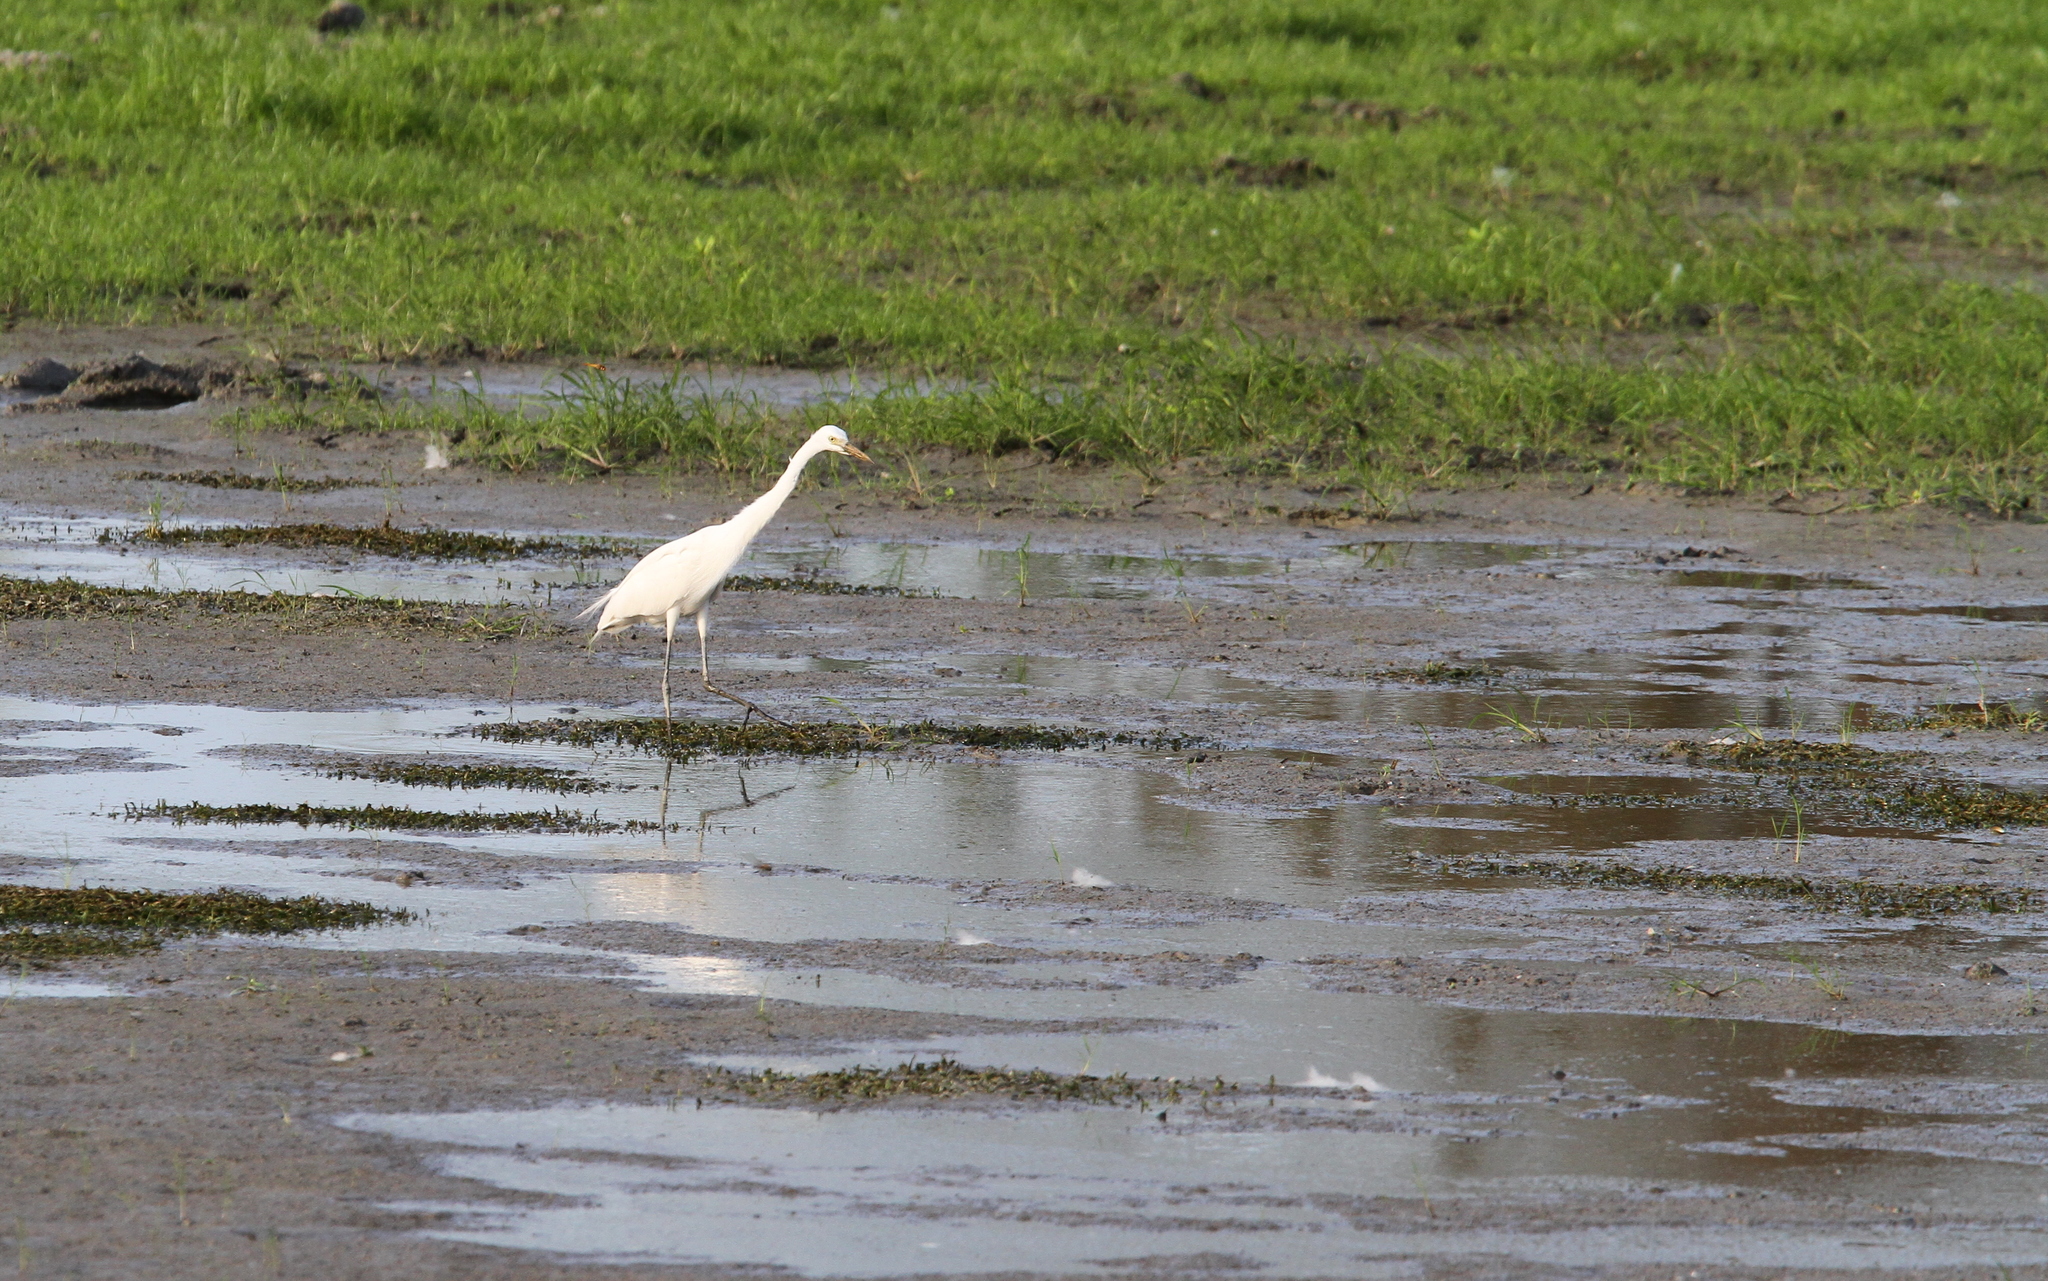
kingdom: Animalia
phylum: Chordata
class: Aves
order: Pelecaniformes
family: Ardeidae
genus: Egretta
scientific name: Egretta intermedia
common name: Intermediate egret
